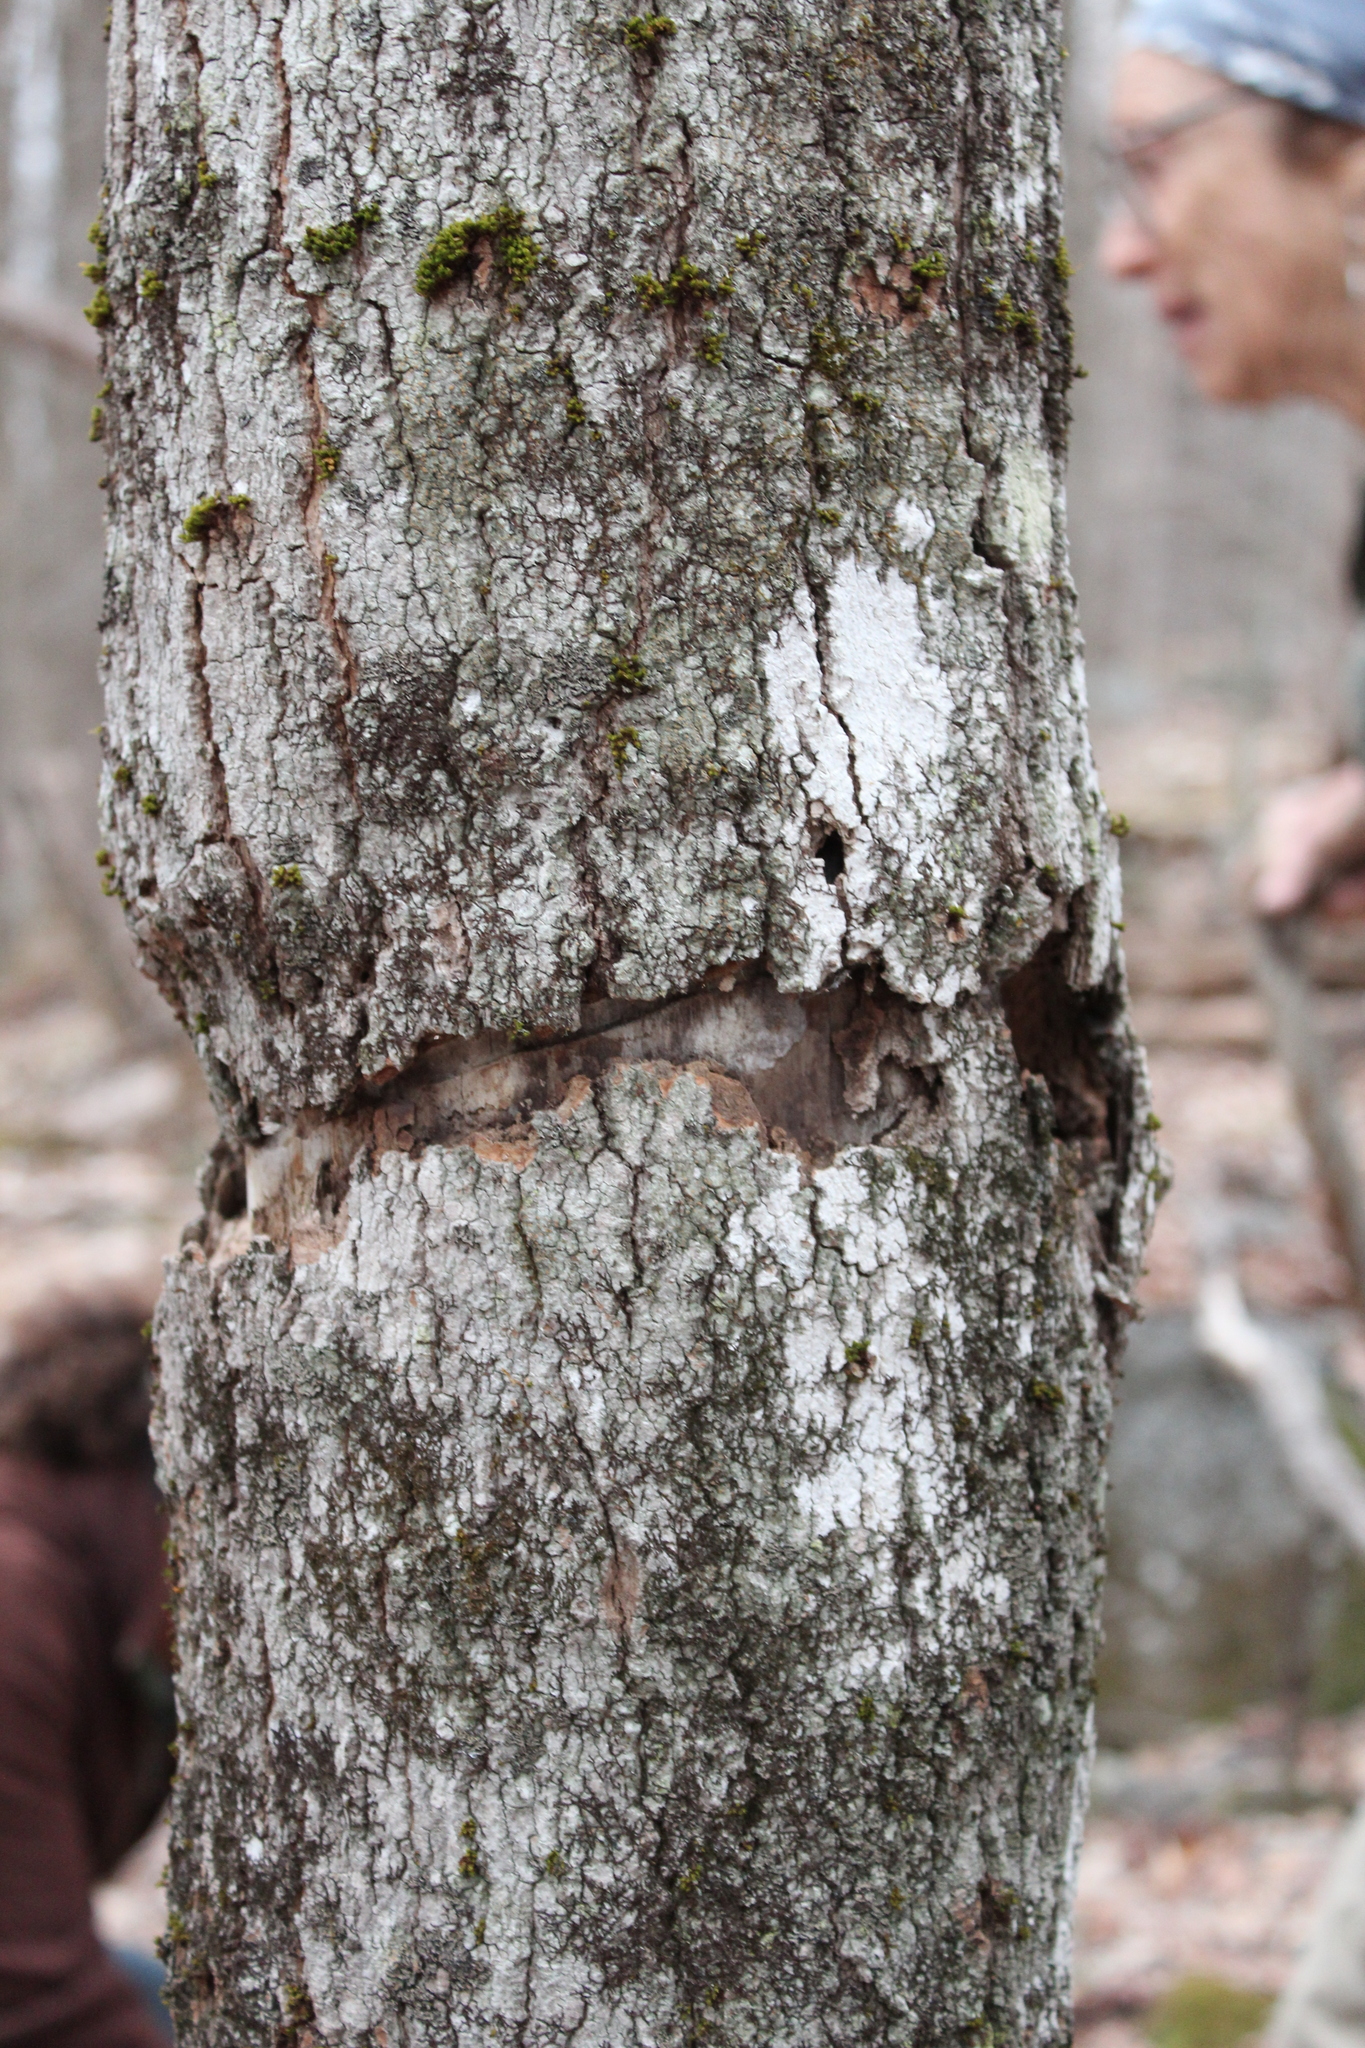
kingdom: Animalia
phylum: Arthropoda
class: Insecta
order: Coleoptera
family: Cerambycidae
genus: Glycobius
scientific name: Glycobius speciosus
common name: Sugar maple borer
